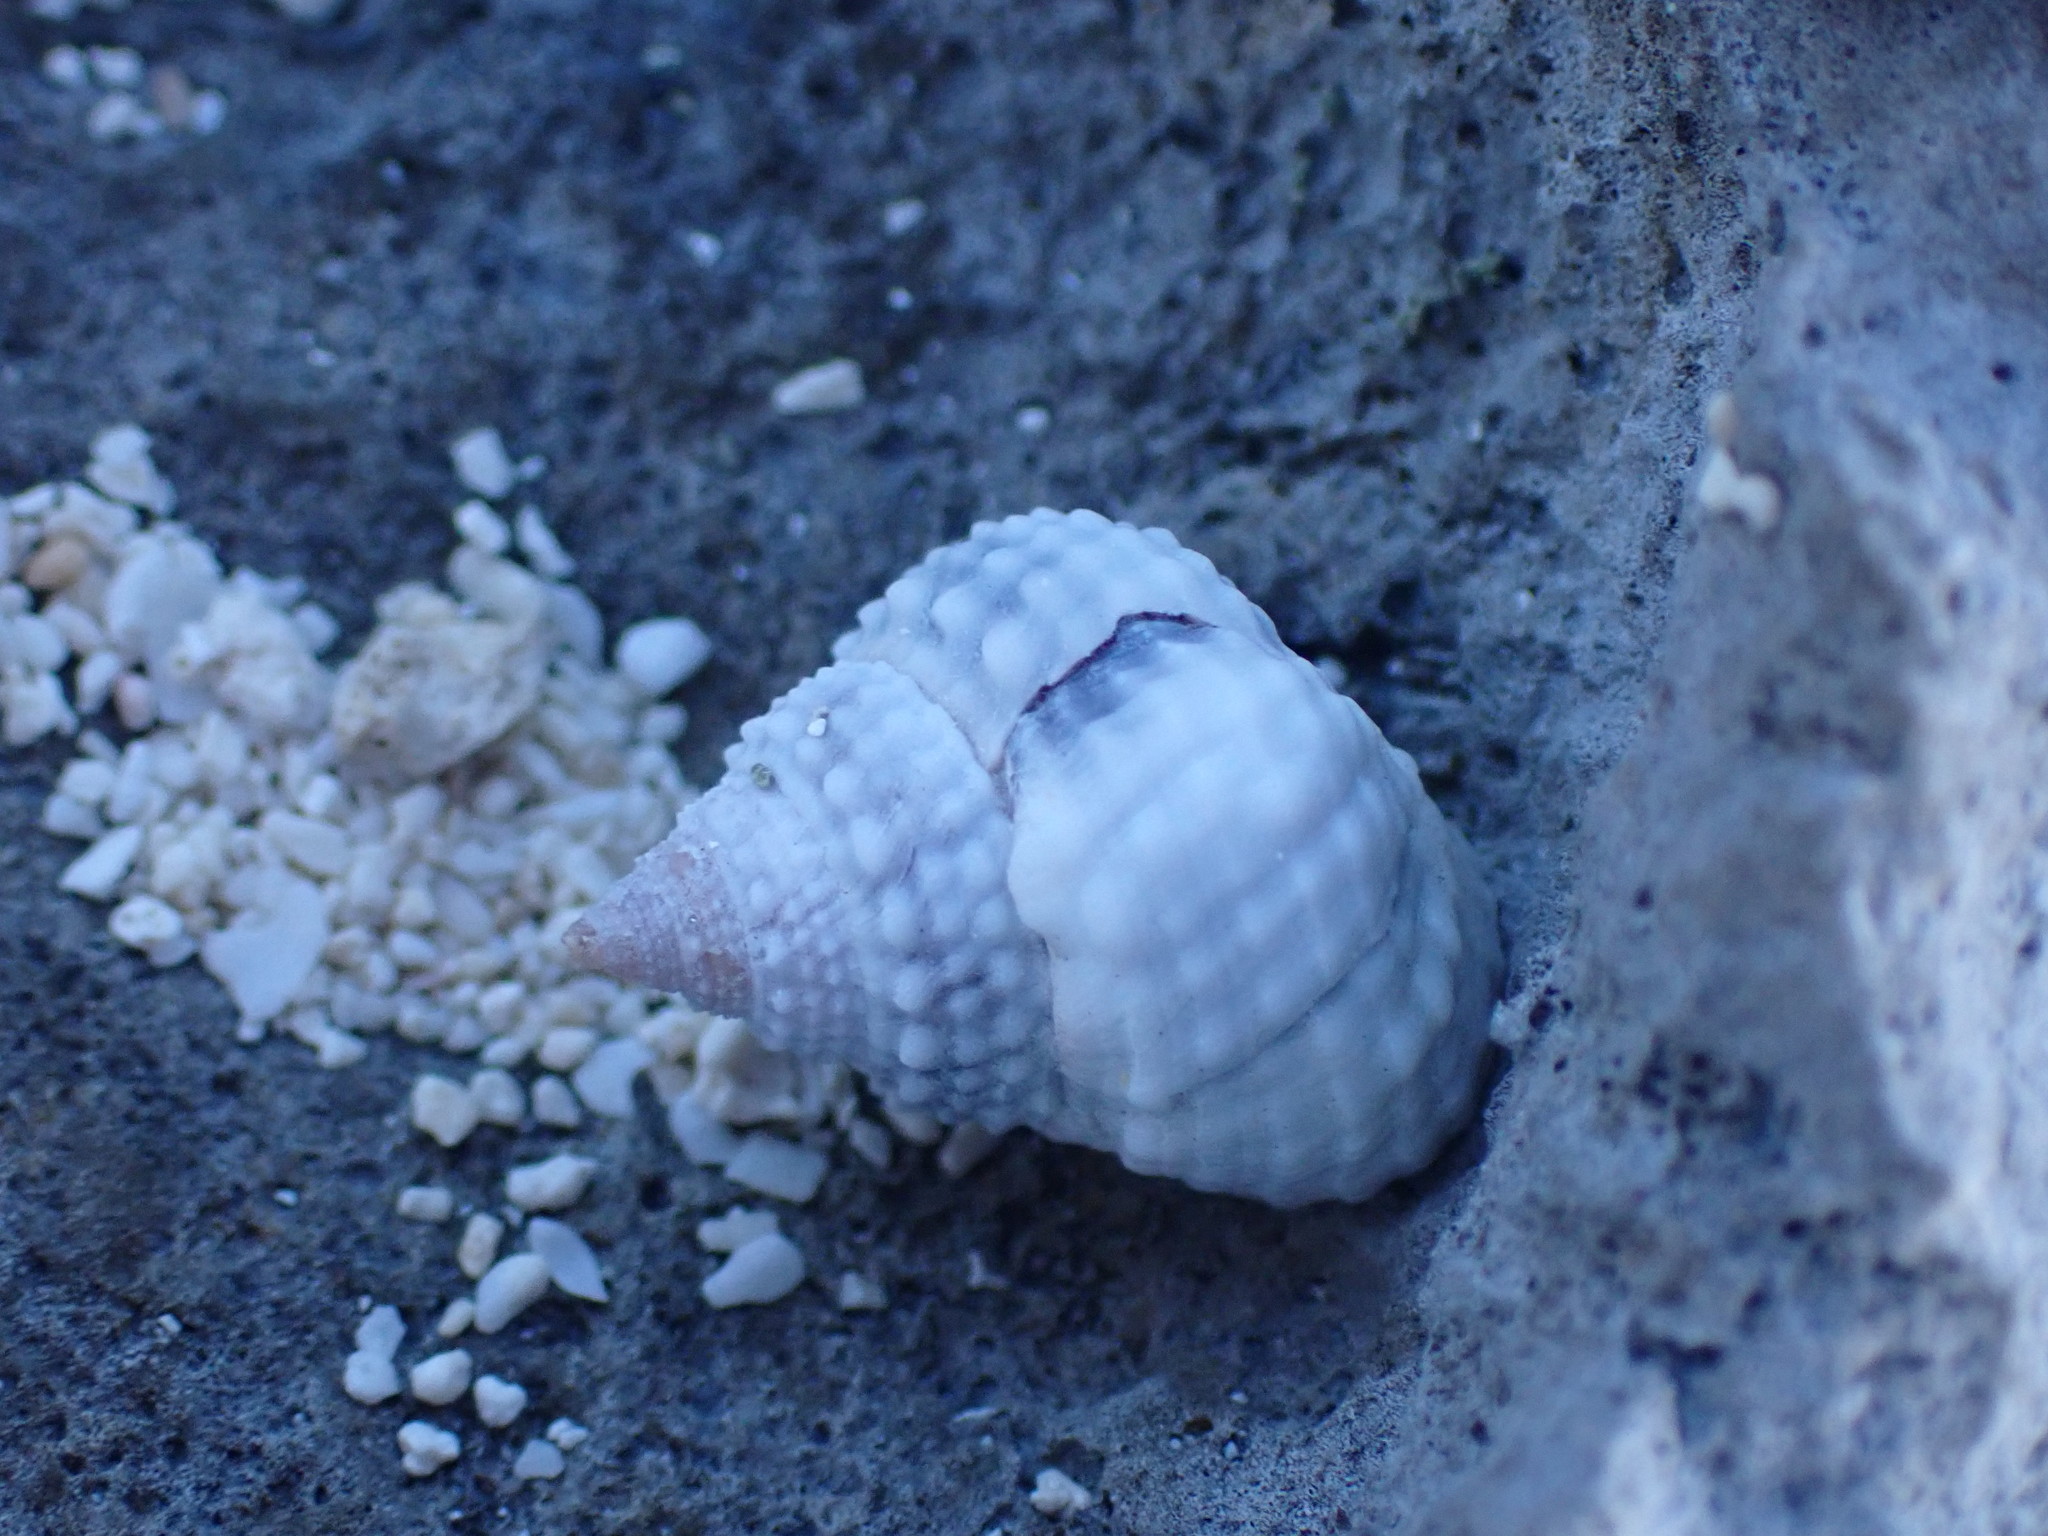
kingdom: Animalia
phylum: Mollusca
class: Gastropoda
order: Littorinimorpha
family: Littorinidae
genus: Cenchritis
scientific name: Cenchritis muricatus
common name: Beaded periwinkle
